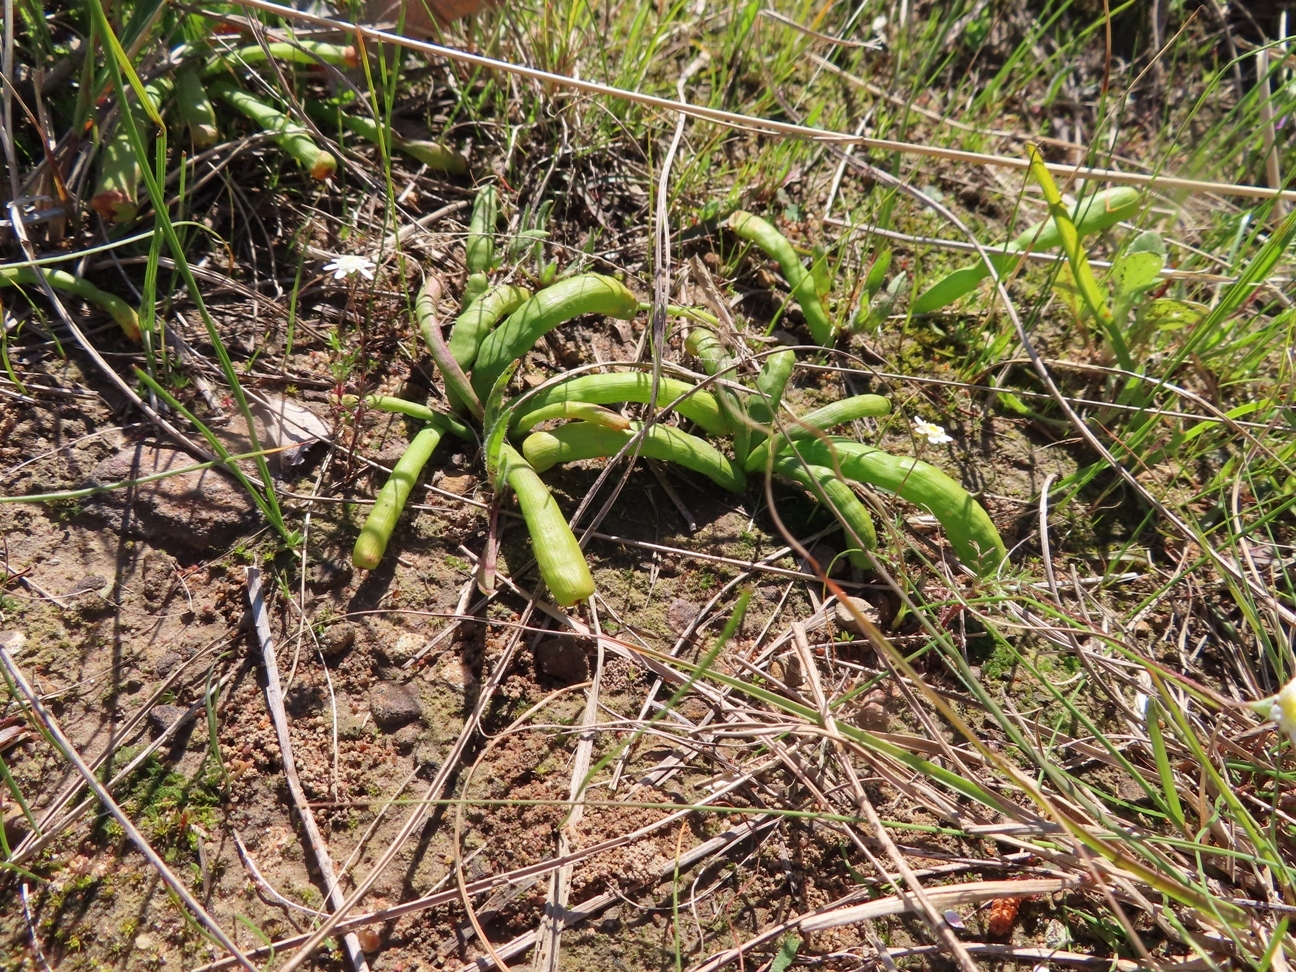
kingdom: Plantae
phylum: Tracheophyta
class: Liliopsida
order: Asparagales
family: Iridaceae
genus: Micranthus
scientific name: Micranthus tubulosus
